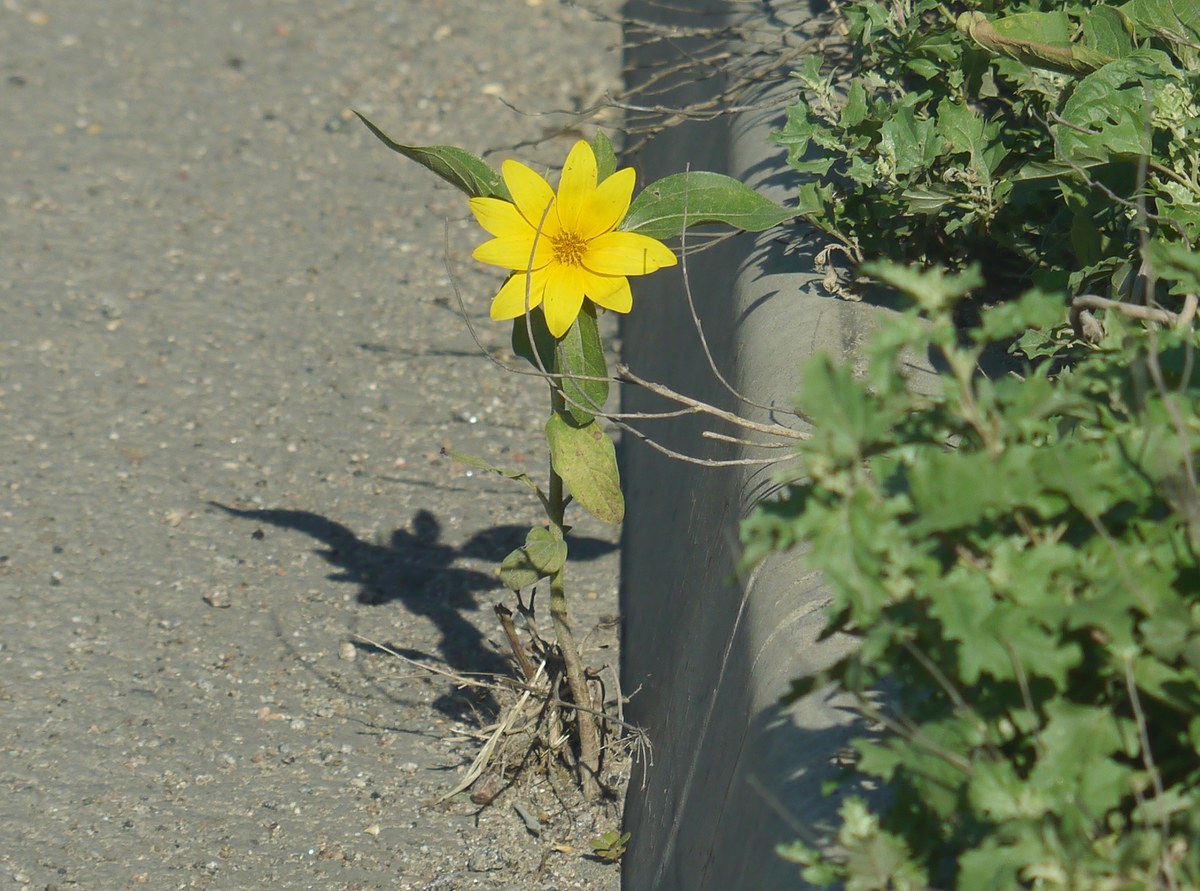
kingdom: Plantae
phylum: Tracheophyta
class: Magnoliopsida
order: Asterales
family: Asteraceae
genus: Helianthus
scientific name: Helianthus annuus
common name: Sunflower
